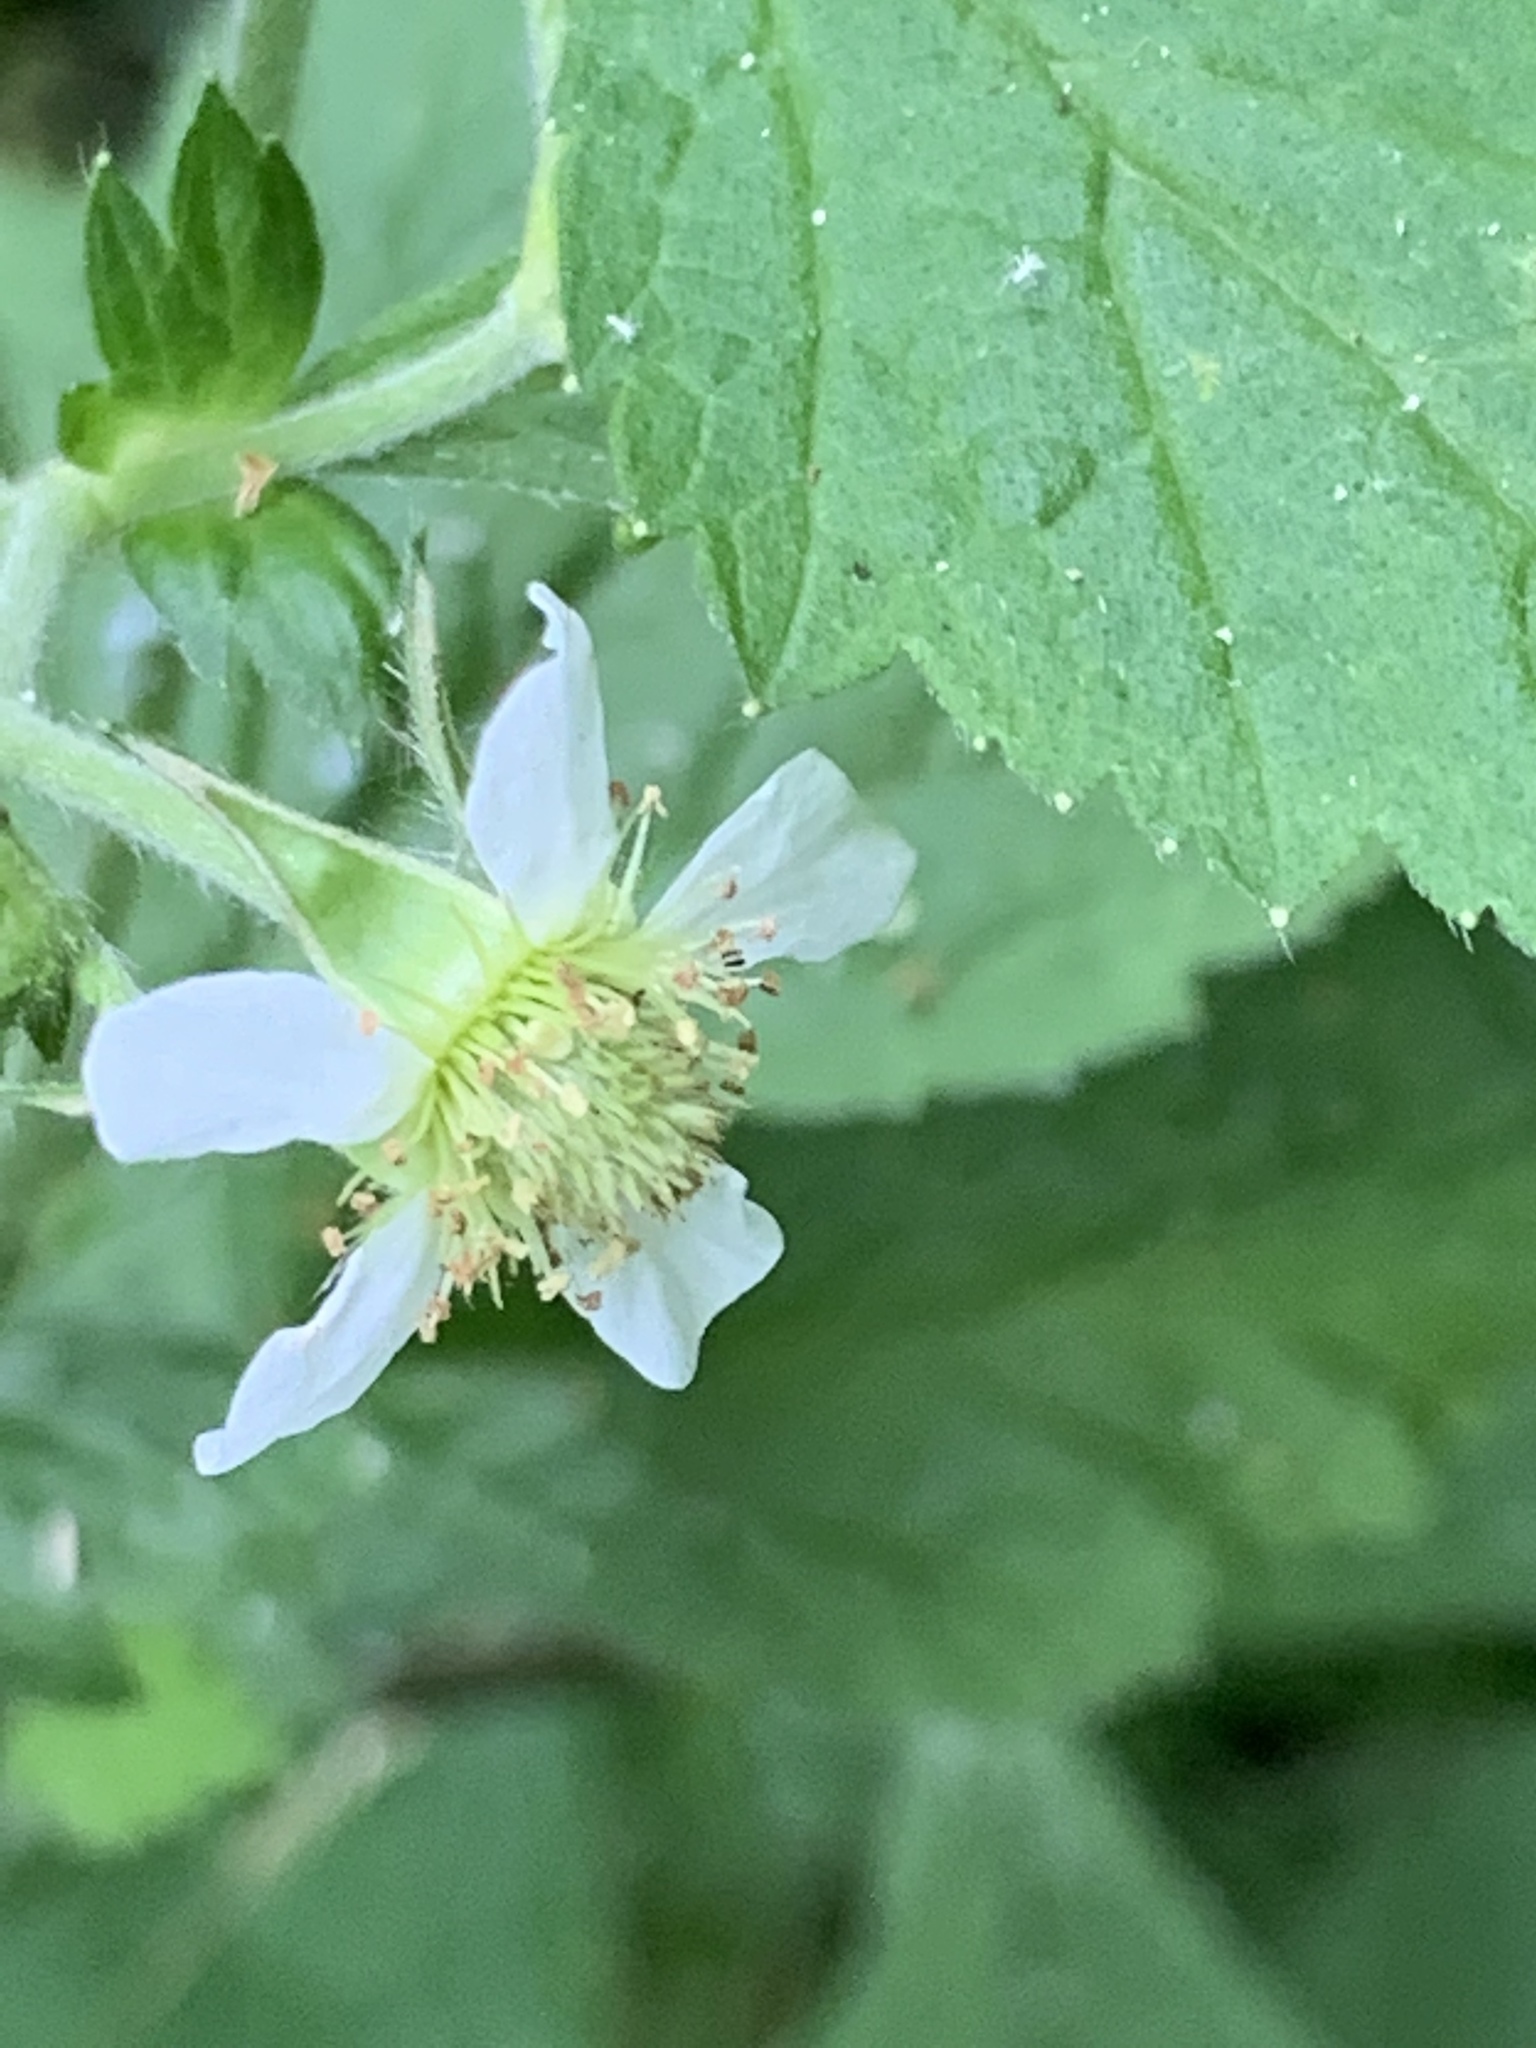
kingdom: Plantae
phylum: Tracheophyta
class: Magnoliopsida
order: Rosales
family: Rosaceae
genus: Geum
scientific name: Geum canadense
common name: White avens
